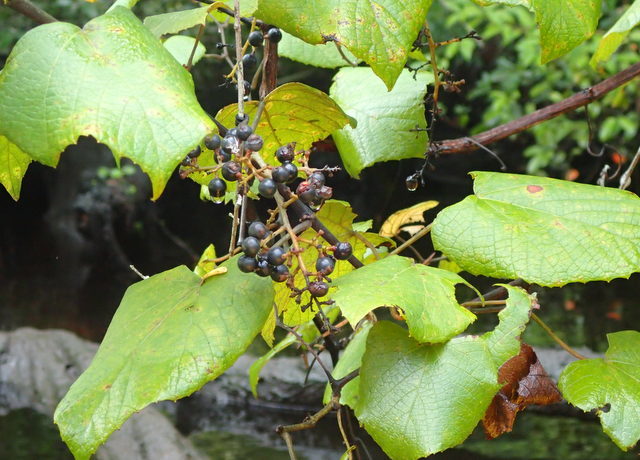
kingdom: Plantae
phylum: Tracheophyta
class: Magnoliopsida
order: Vitales
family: Vitaceae
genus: Vitis
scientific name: Vitis vulpina
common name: Frost grape
